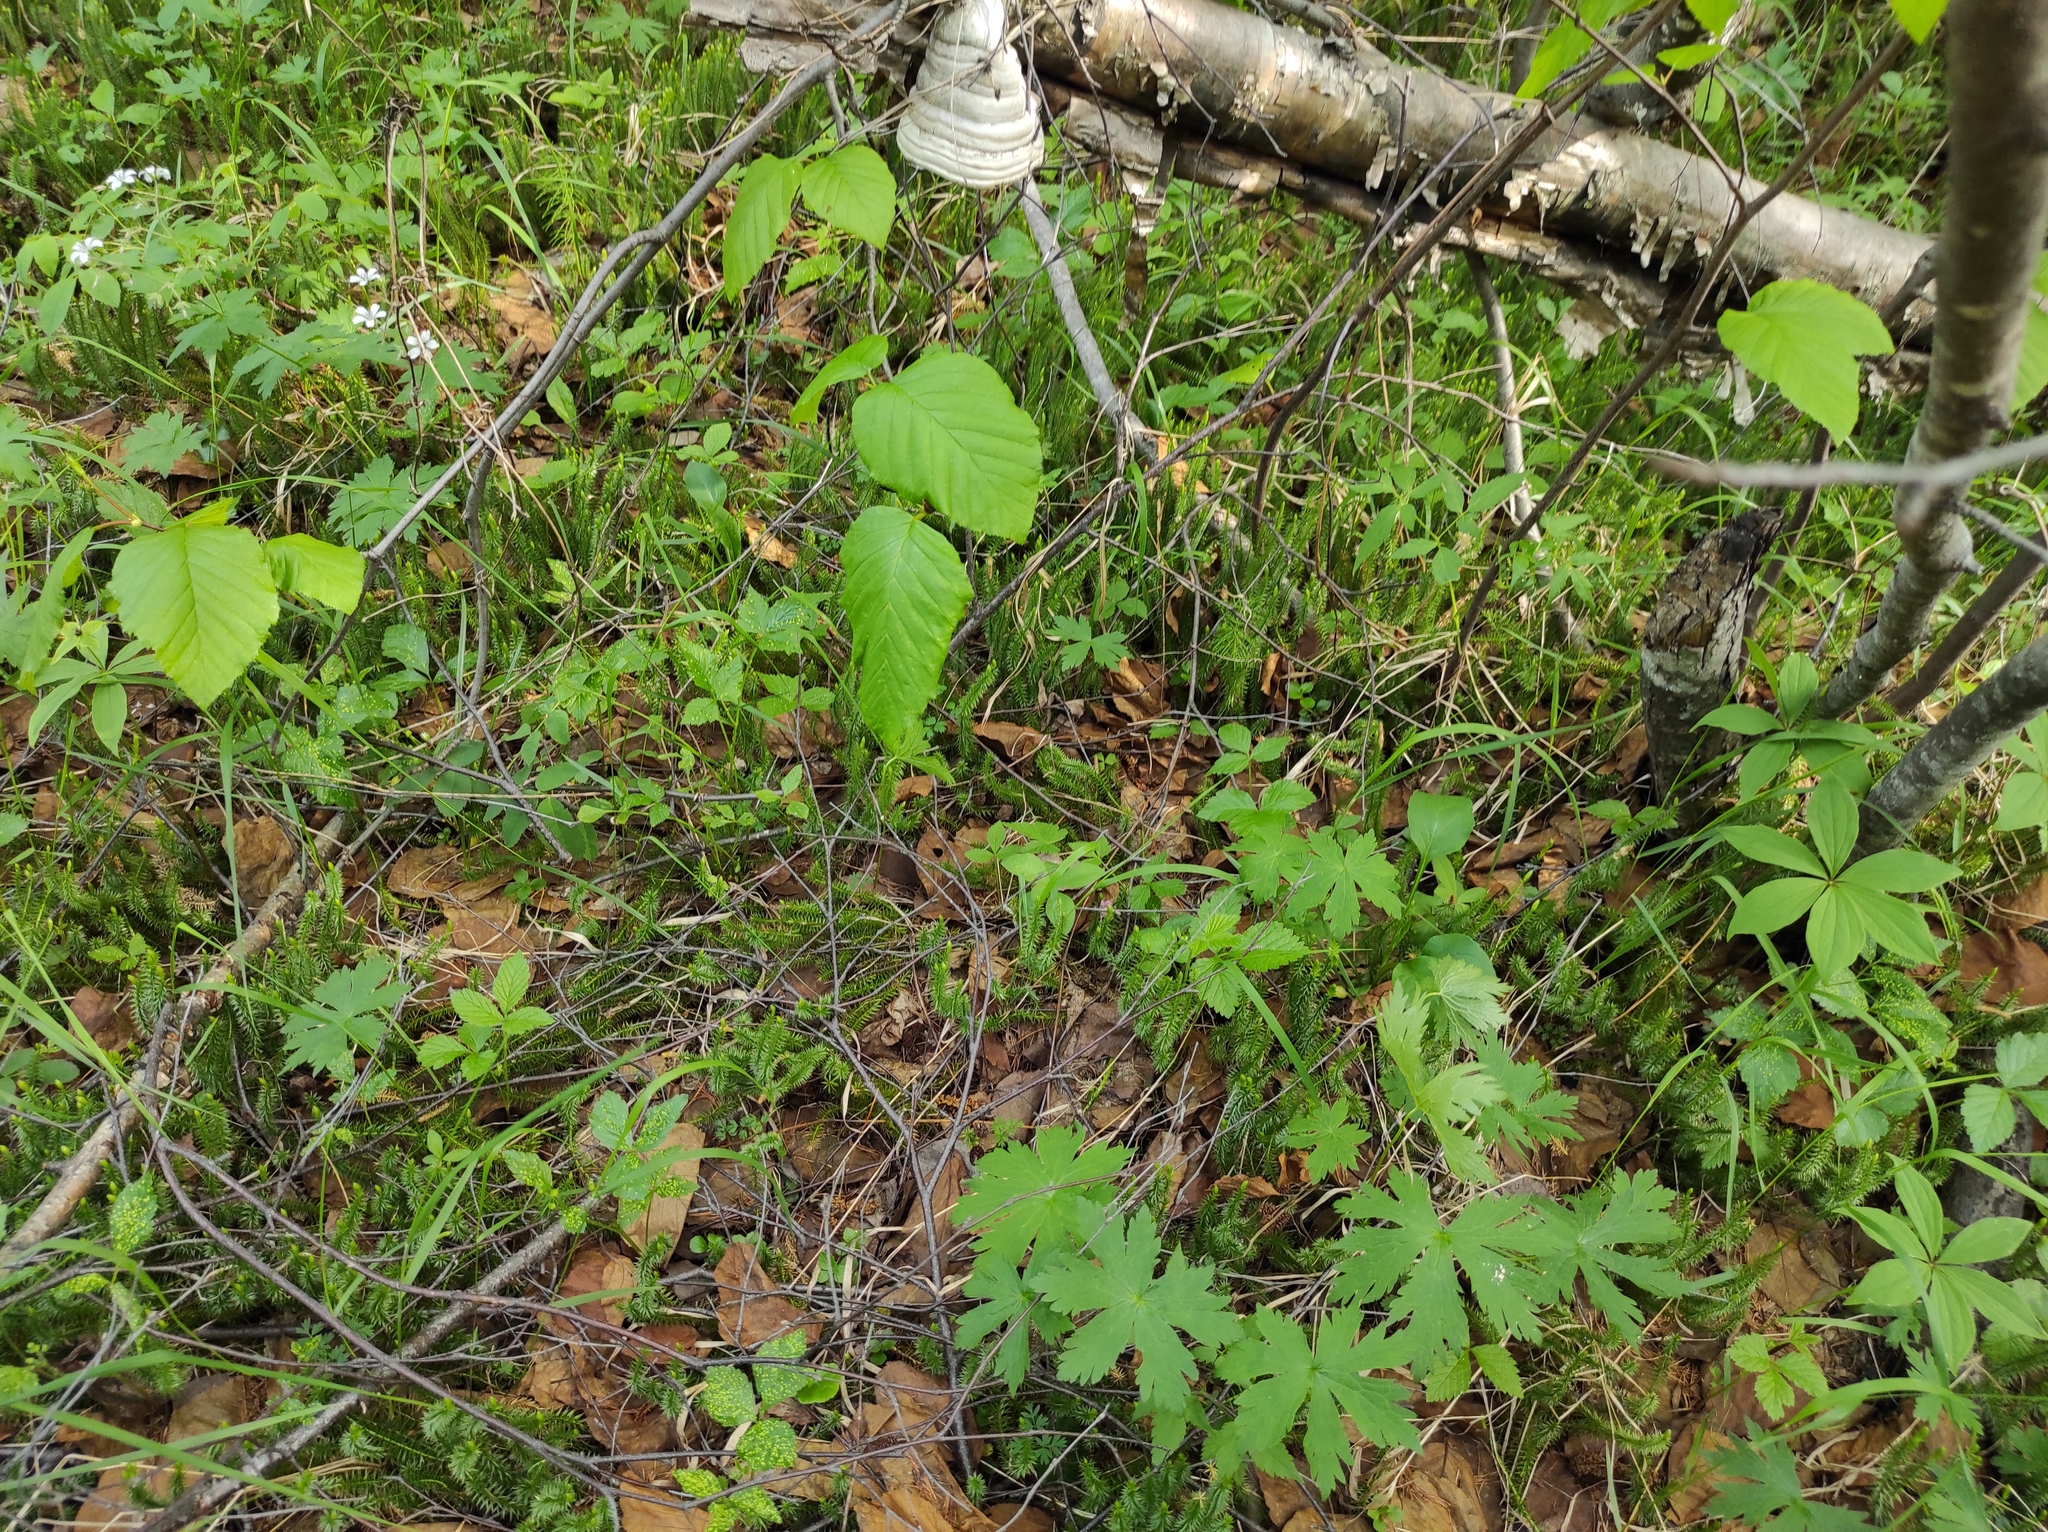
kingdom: Plantae
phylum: Tracheophyta
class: Magnoliopsida
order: Fagales
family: Betulaceae
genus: Alnus
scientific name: Alnus alnobetula
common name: Green alder
